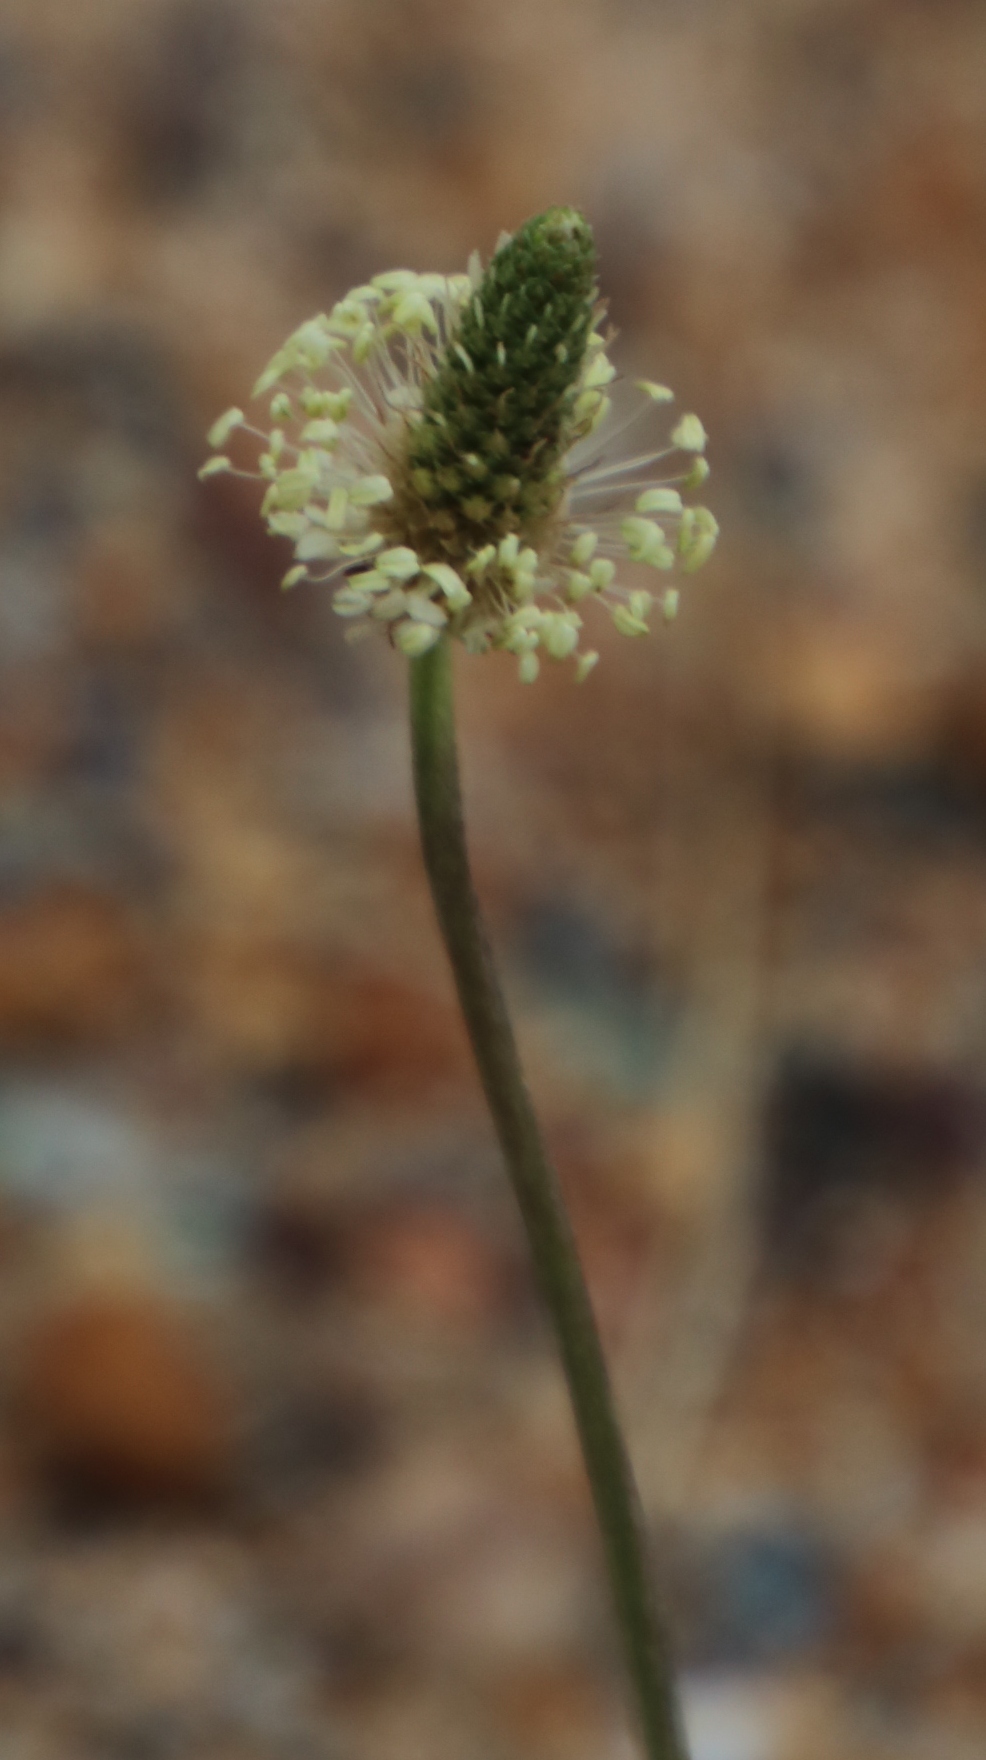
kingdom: Plantae
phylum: Tracheophyta
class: Magnoliopsida
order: Lamiales
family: Plantaginaceae
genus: Plantago
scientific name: Plantago lanceolata
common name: Ribwort plantain
